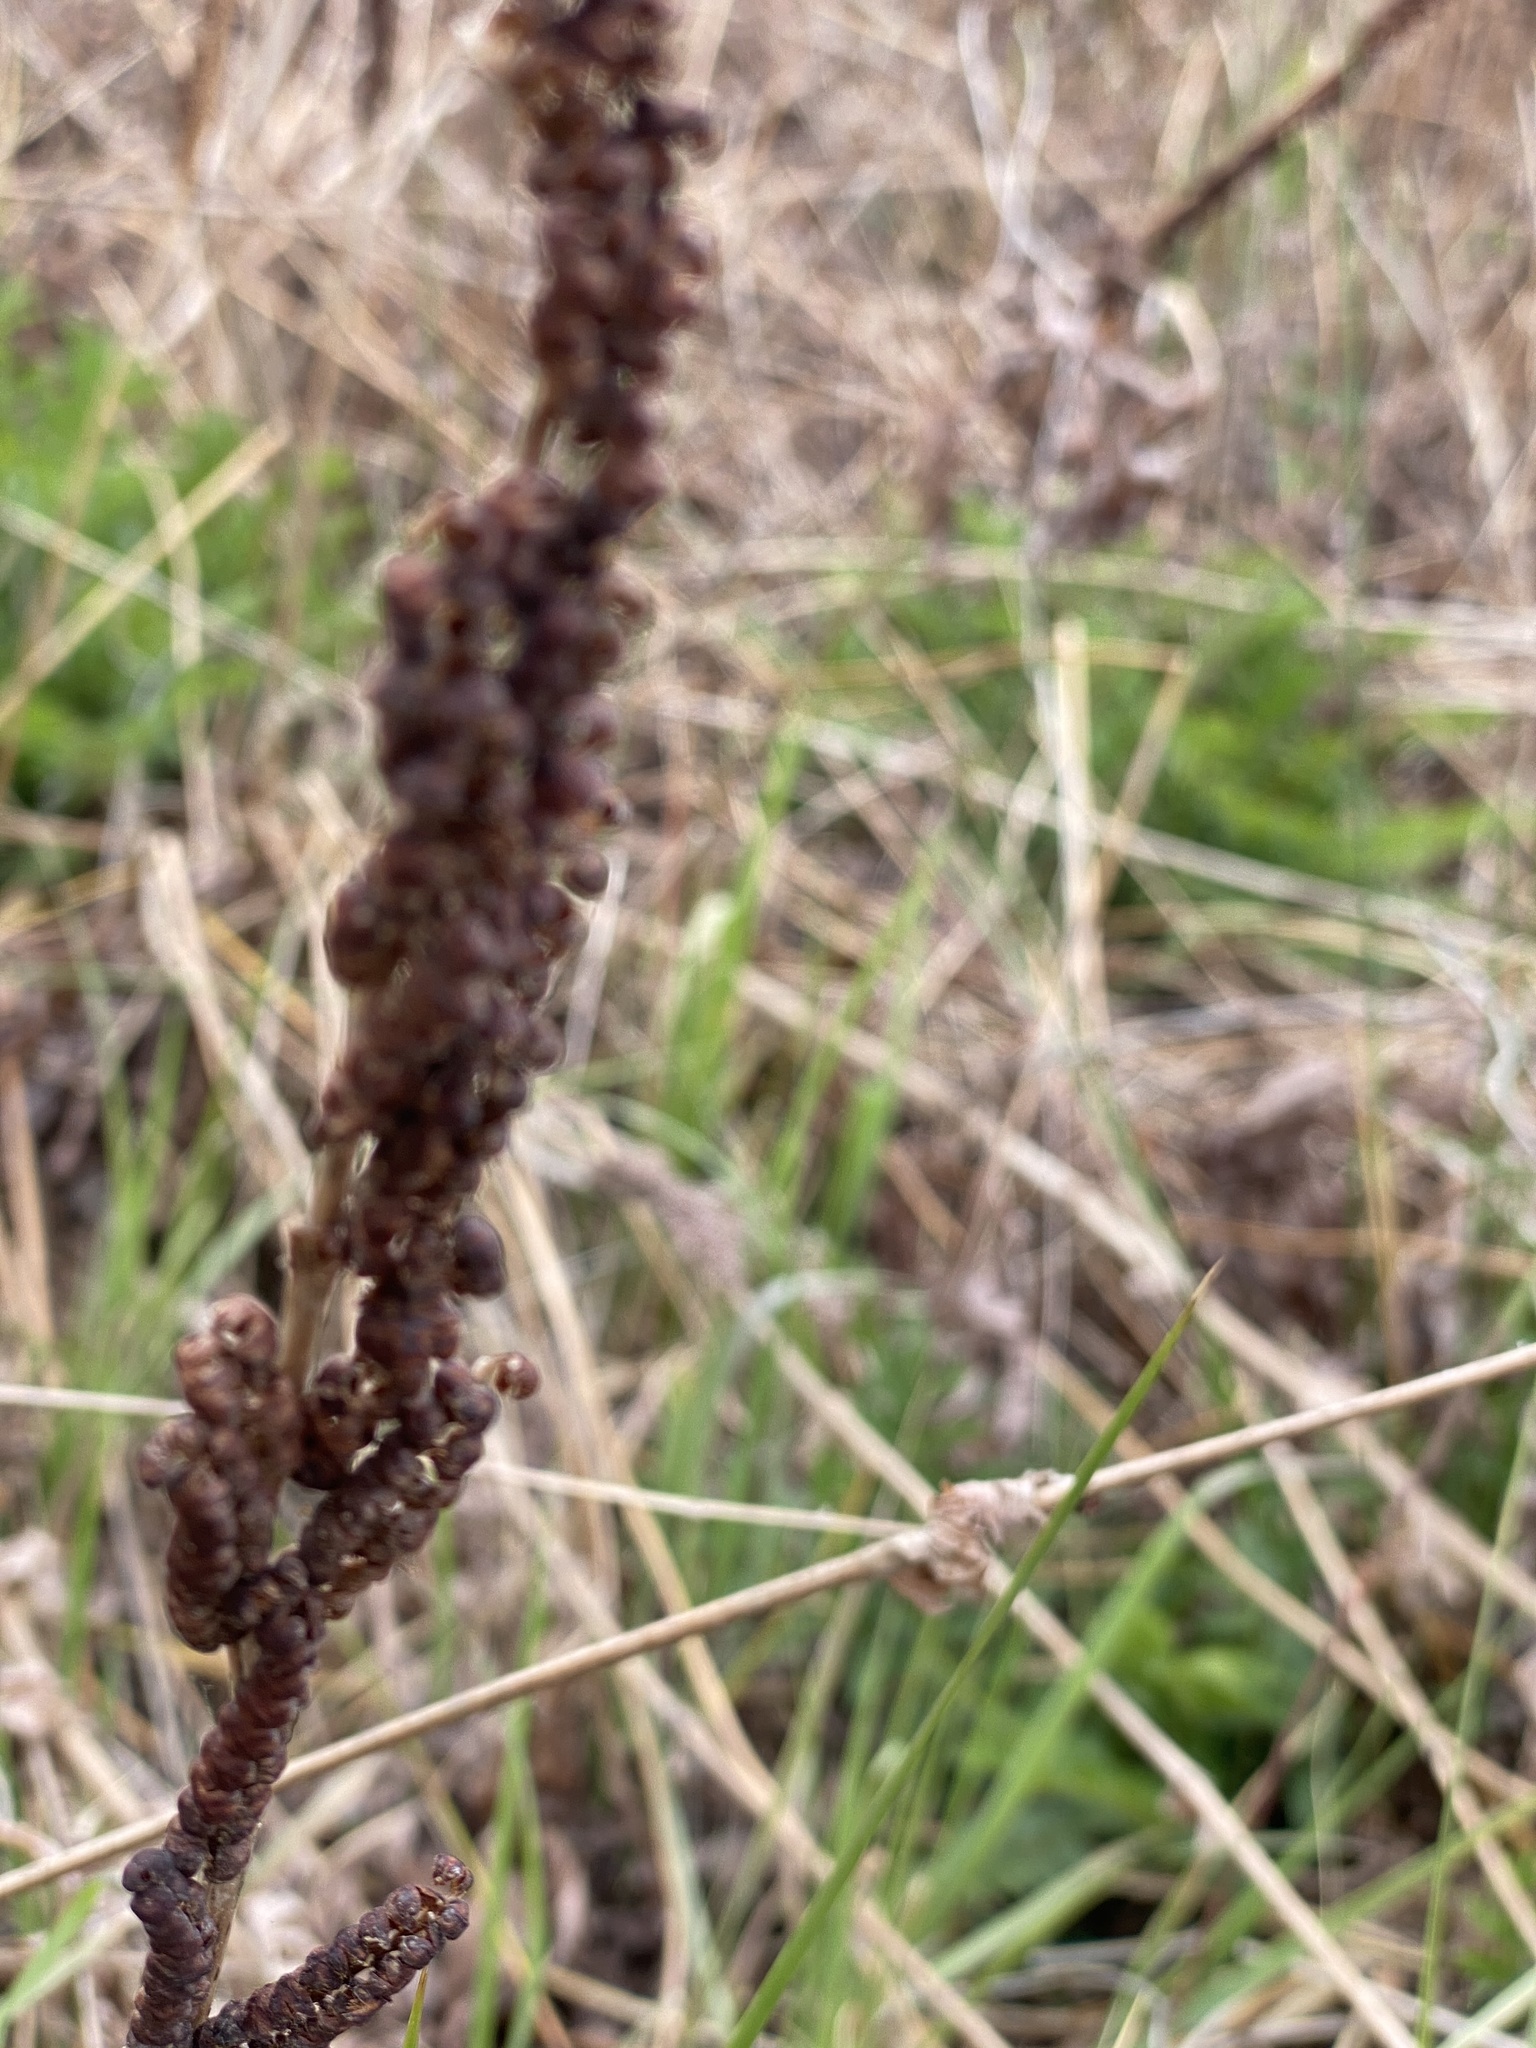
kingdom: Plantae
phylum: Tracheophyta
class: Polypodiopsida
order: Polypodiales
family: Onocleaceae
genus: Onoclea
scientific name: Onoclea sensibilis
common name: Sensitive fern
